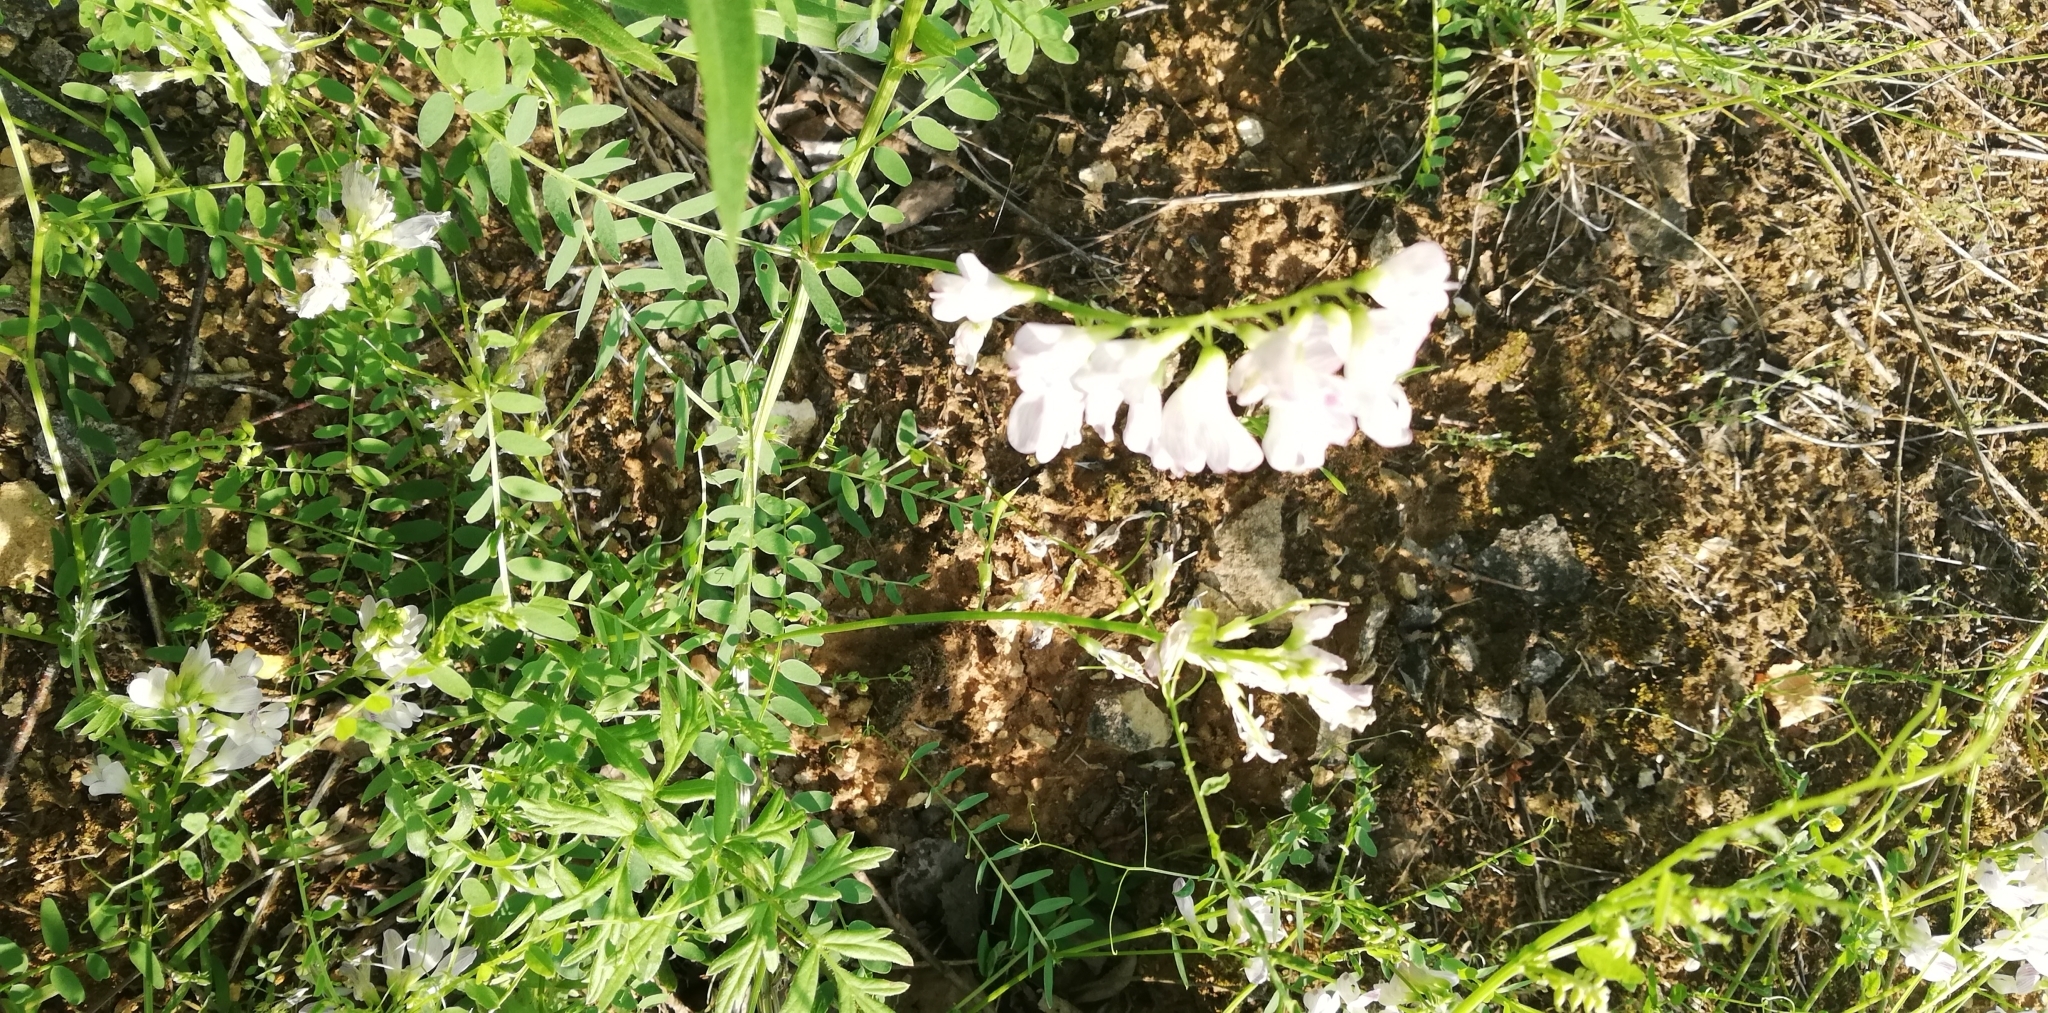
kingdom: Plantae
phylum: Tracheophyta
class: Magnoliopsida
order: Fabales
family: Fabaceae
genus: Vicia
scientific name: Vicia sylvatica
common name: Wood vetch
